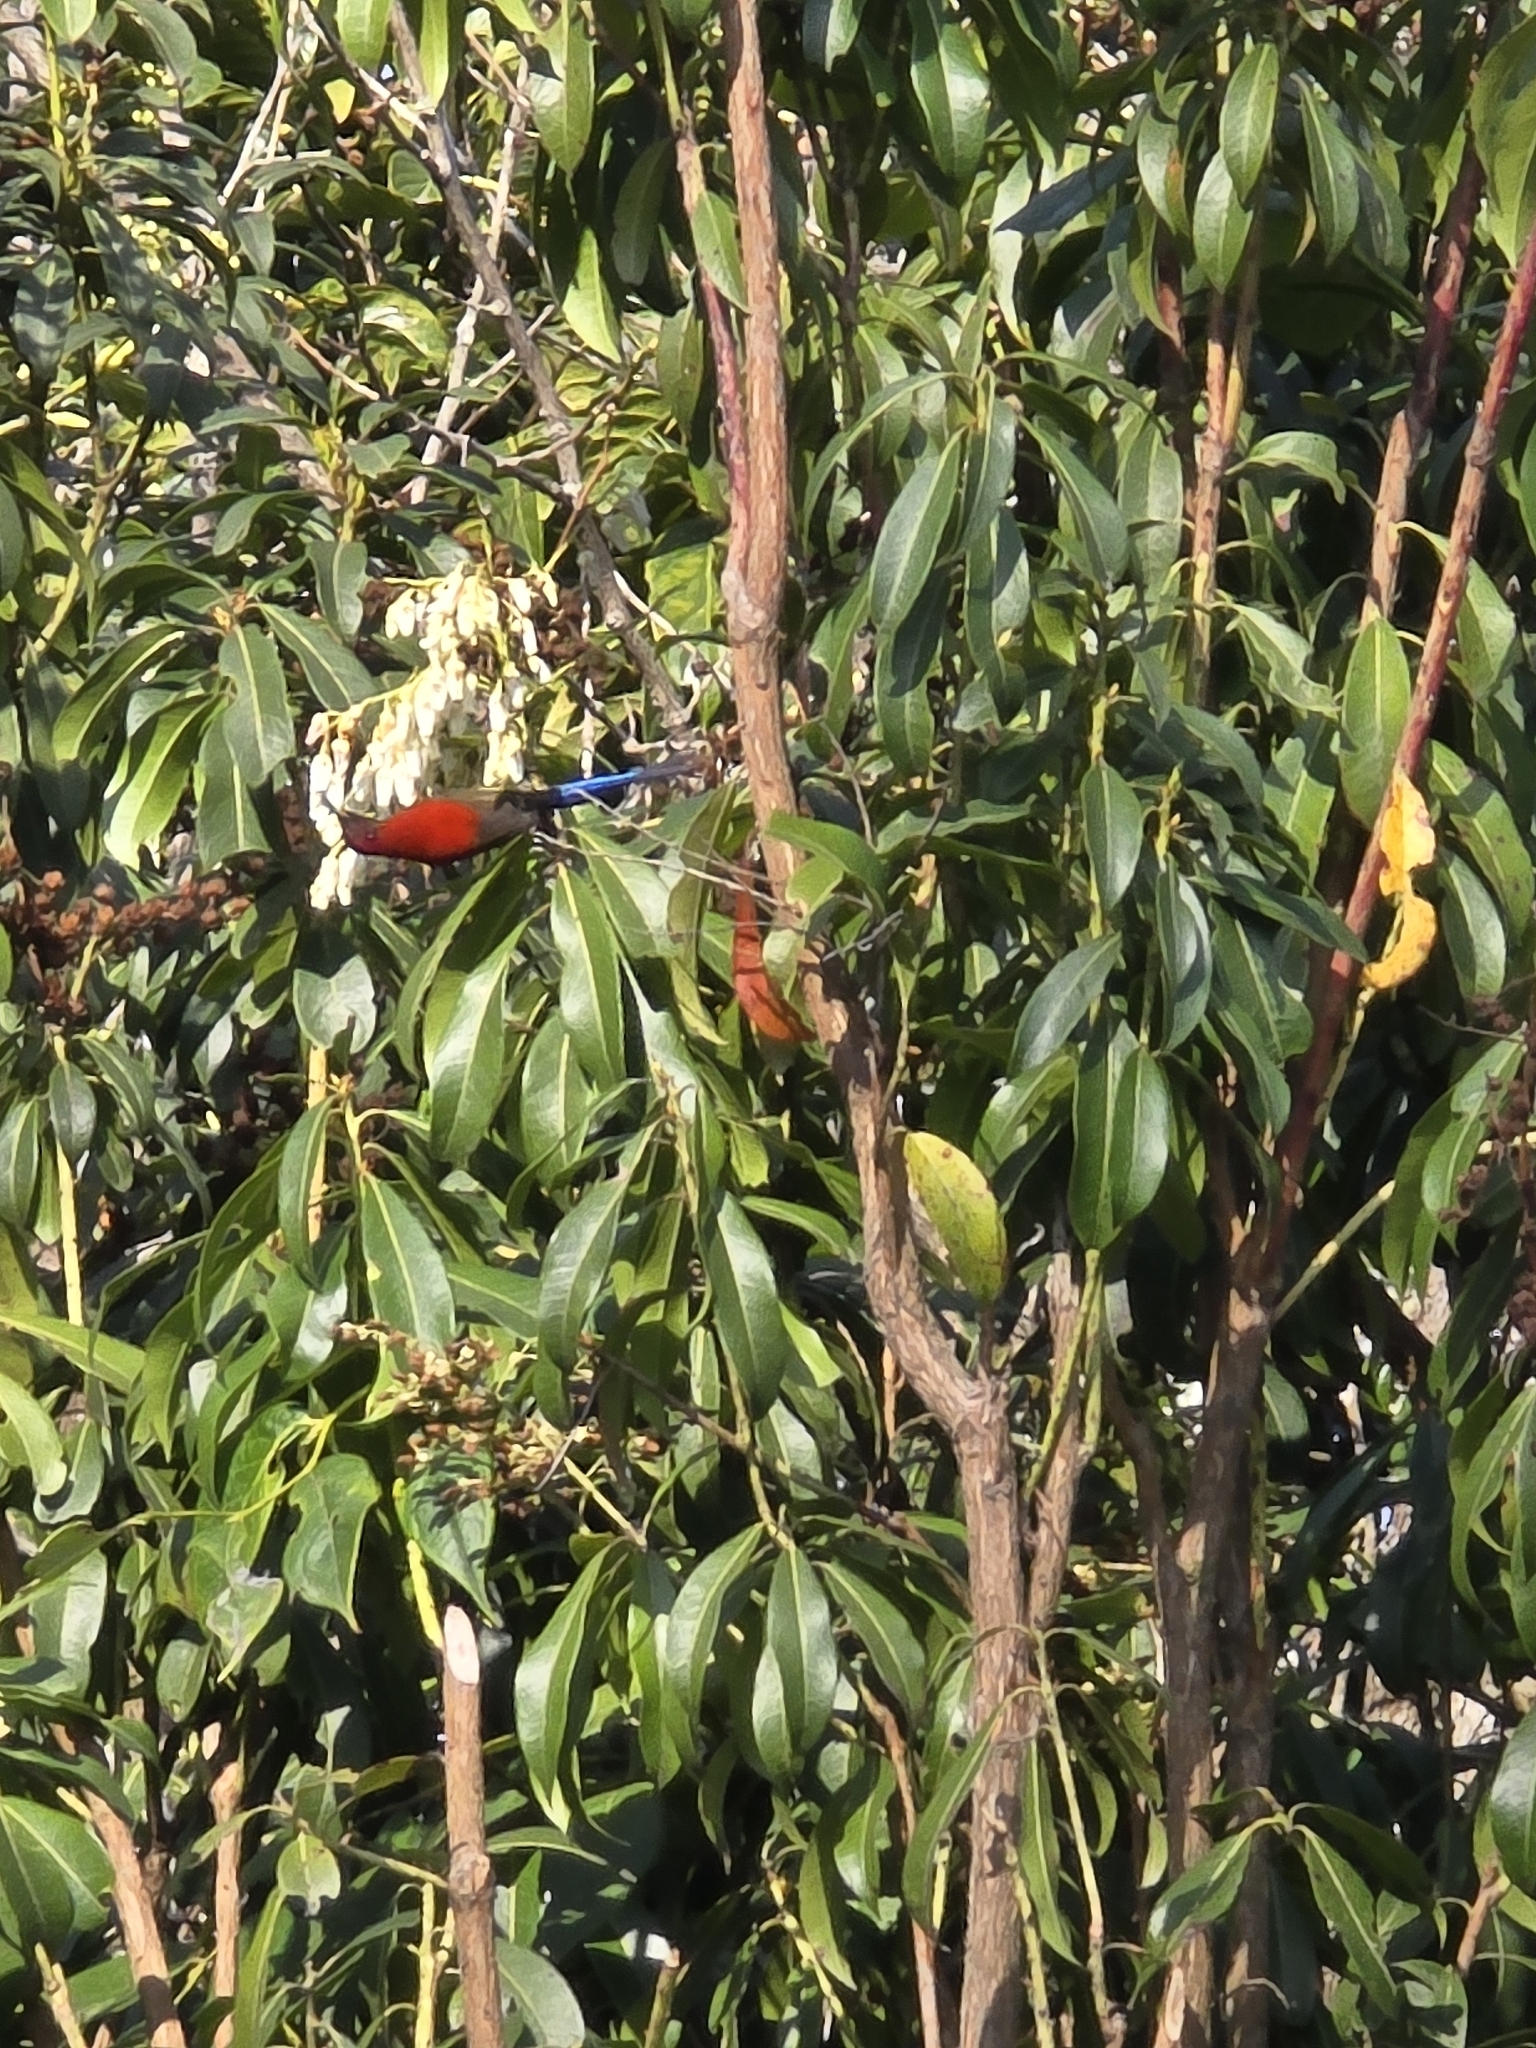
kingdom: Animalia
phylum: Chordata
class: Aves
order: Passeriformes
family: Nectariniidae
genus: Aethopyga
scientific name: Aethopyga gouldiae
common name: Mrs. gould's sunbird
